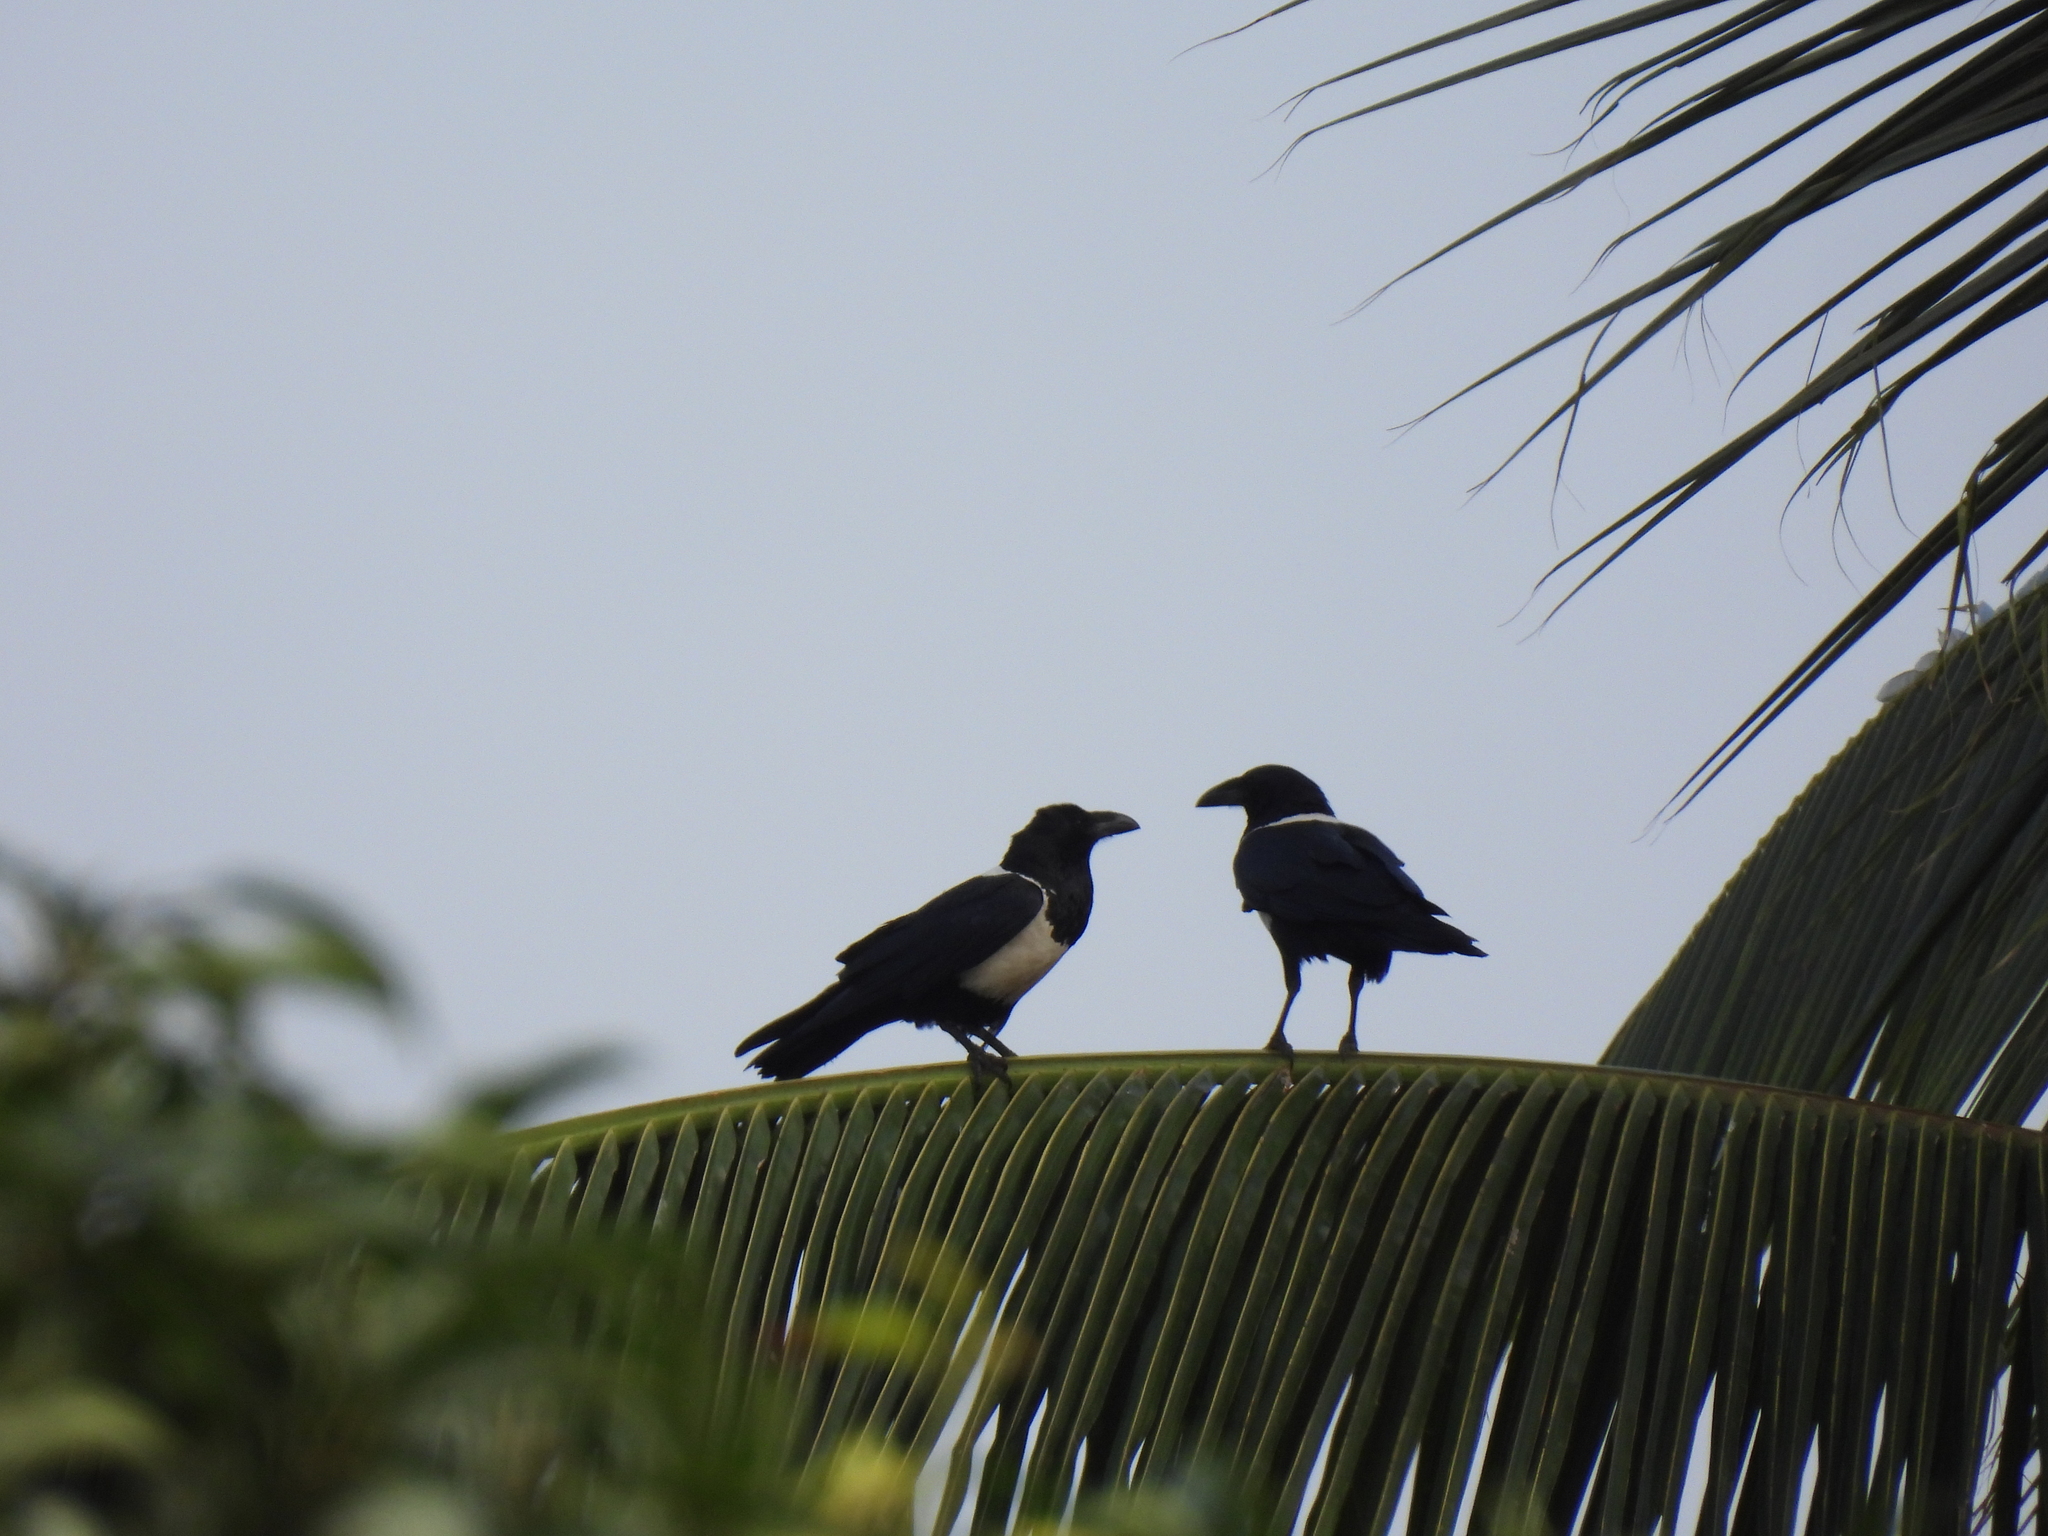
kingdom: Animalia
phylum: Chordata
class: Aves
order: Passeriformes
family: Corvidae
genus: Corvus
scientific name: Corvus albus
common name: Pied crow
